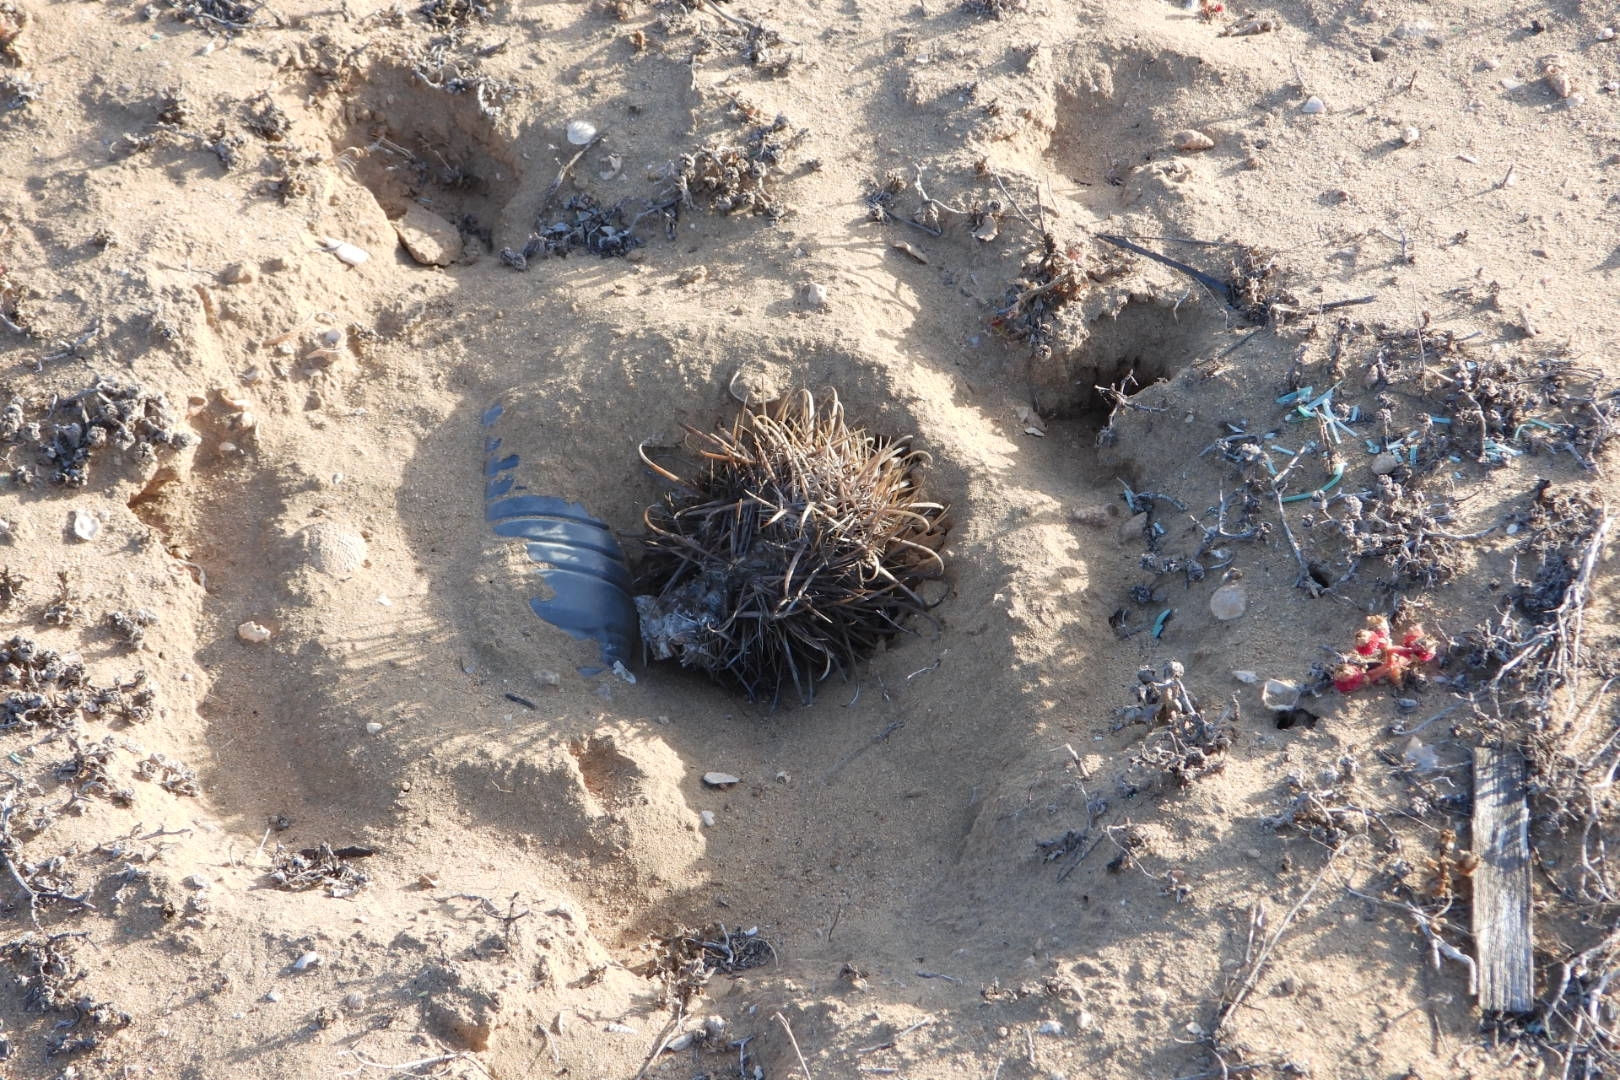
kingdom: Plantae
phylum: Tracheophyta
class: Magnoliopsida
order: Caryophyllales
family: Cactaceae
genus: Ferocactus
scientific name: Ferocactus fordii
